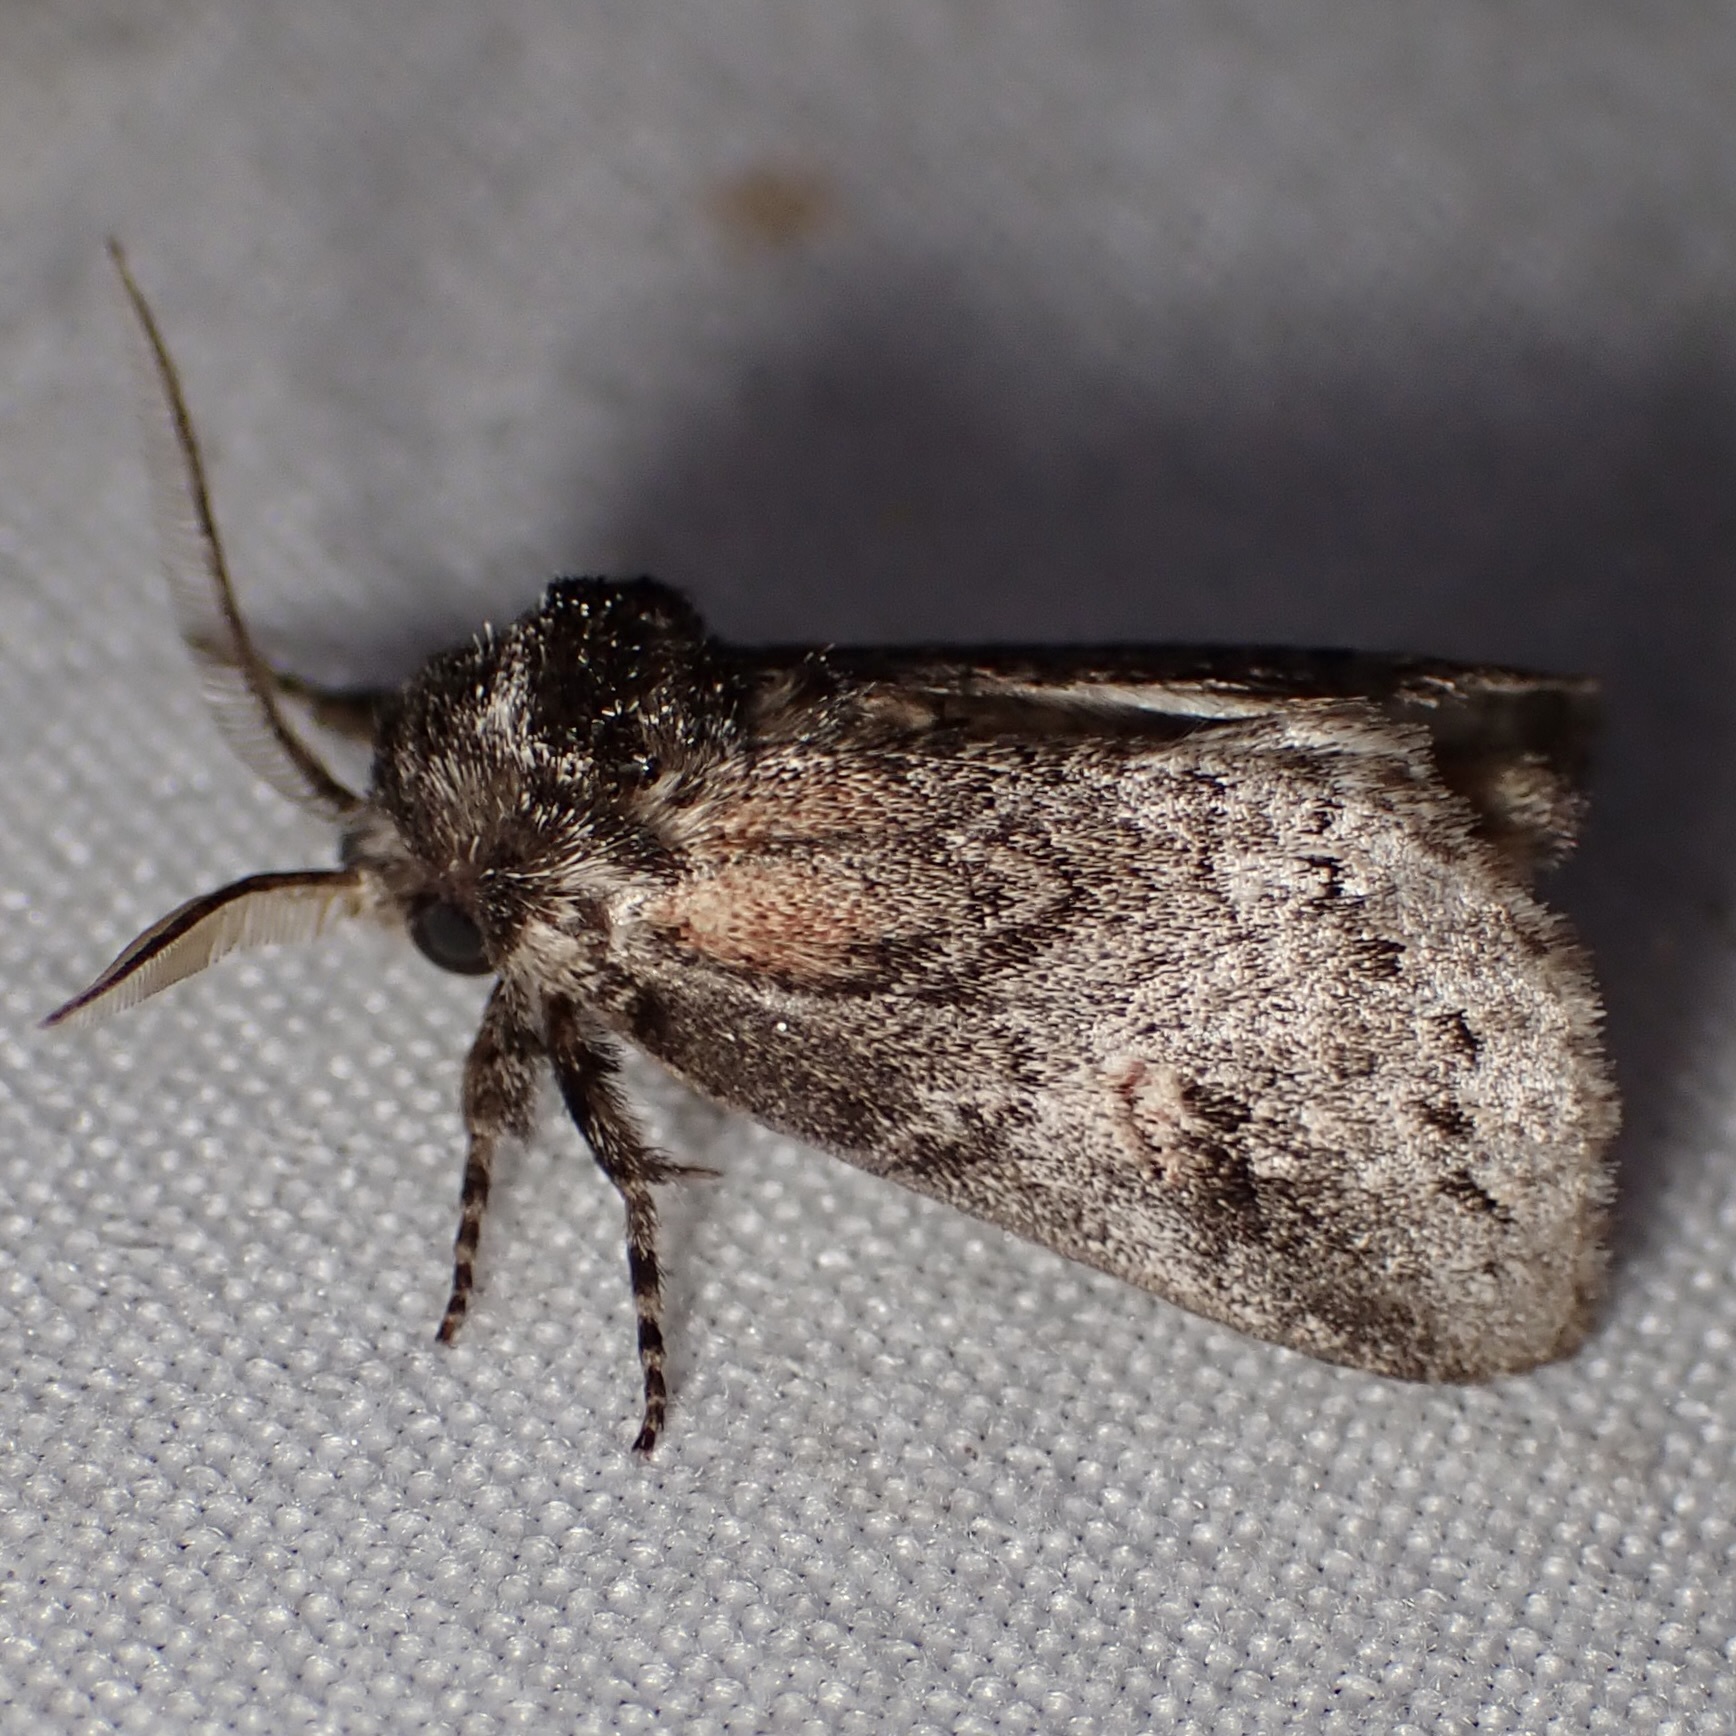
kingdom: Animalia
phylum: Arthropoda
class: Insecta
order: Lepidoptera
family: Notodontidae
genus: Kalkoma
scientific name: Kalkoma zapata
